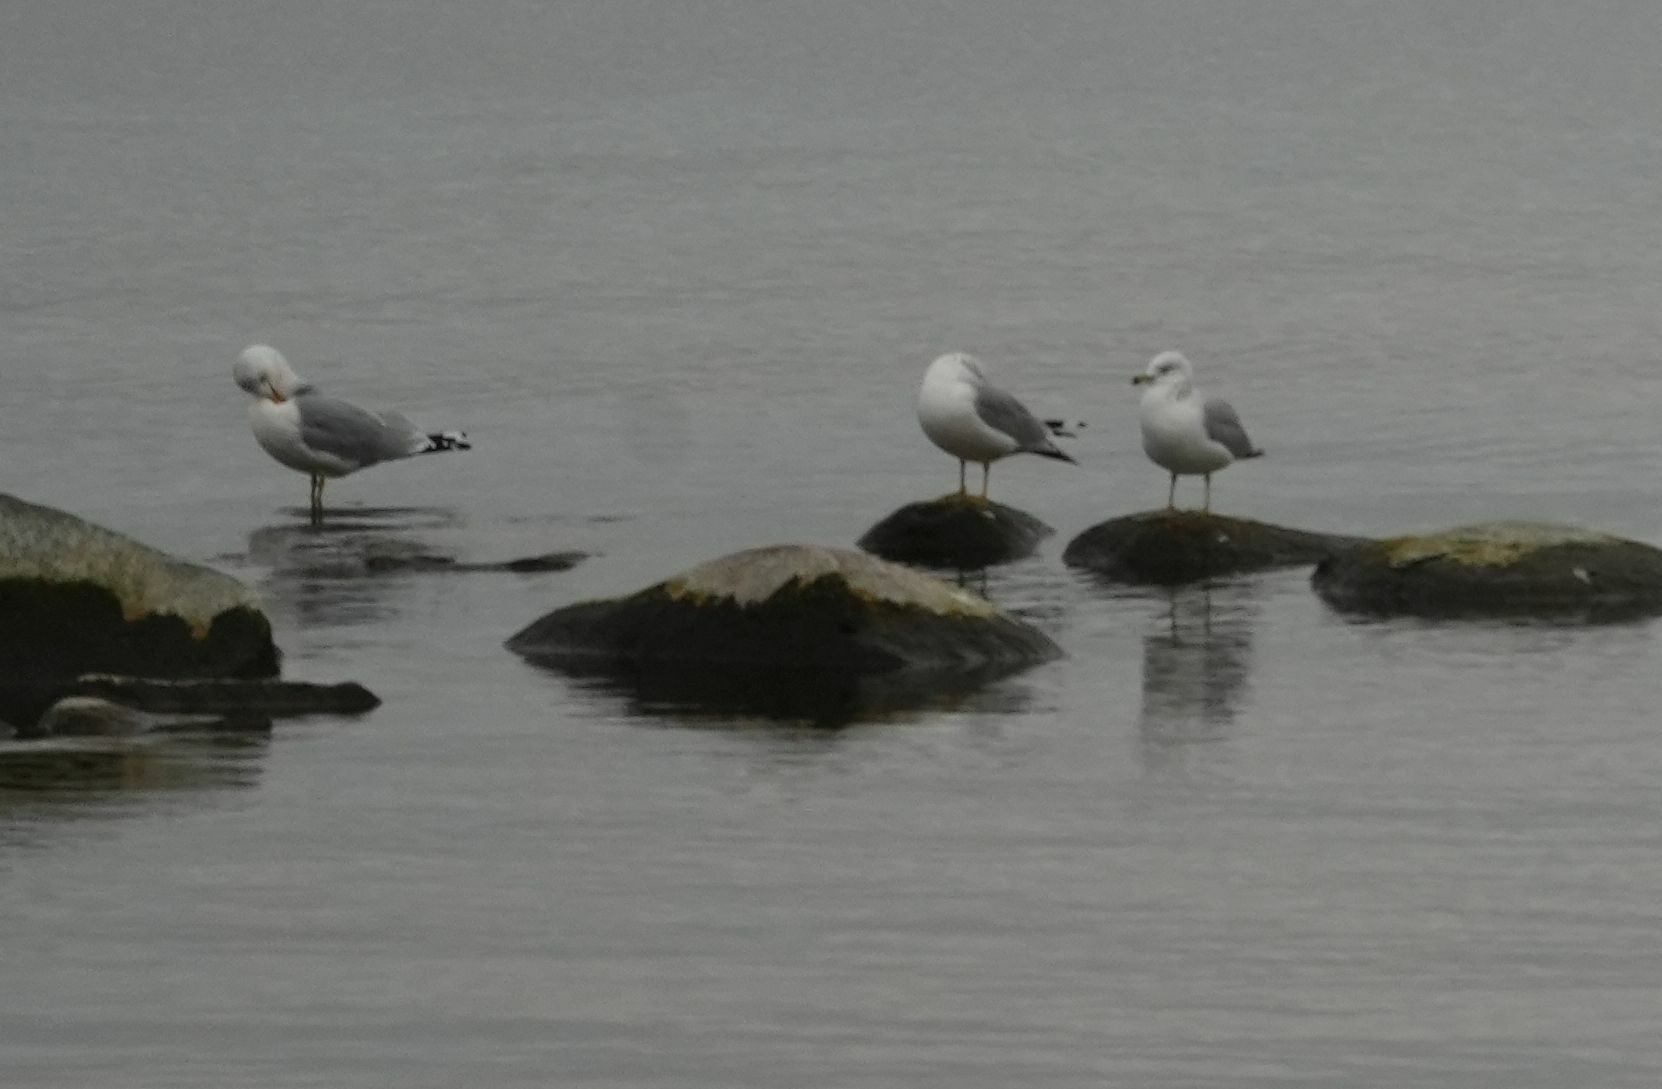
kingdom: Animalia
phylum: Chordata
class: Aves
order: Charadriiformes
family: Laridae
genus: Larus
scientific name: Larus delawarensis
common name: Ring-billed gull
